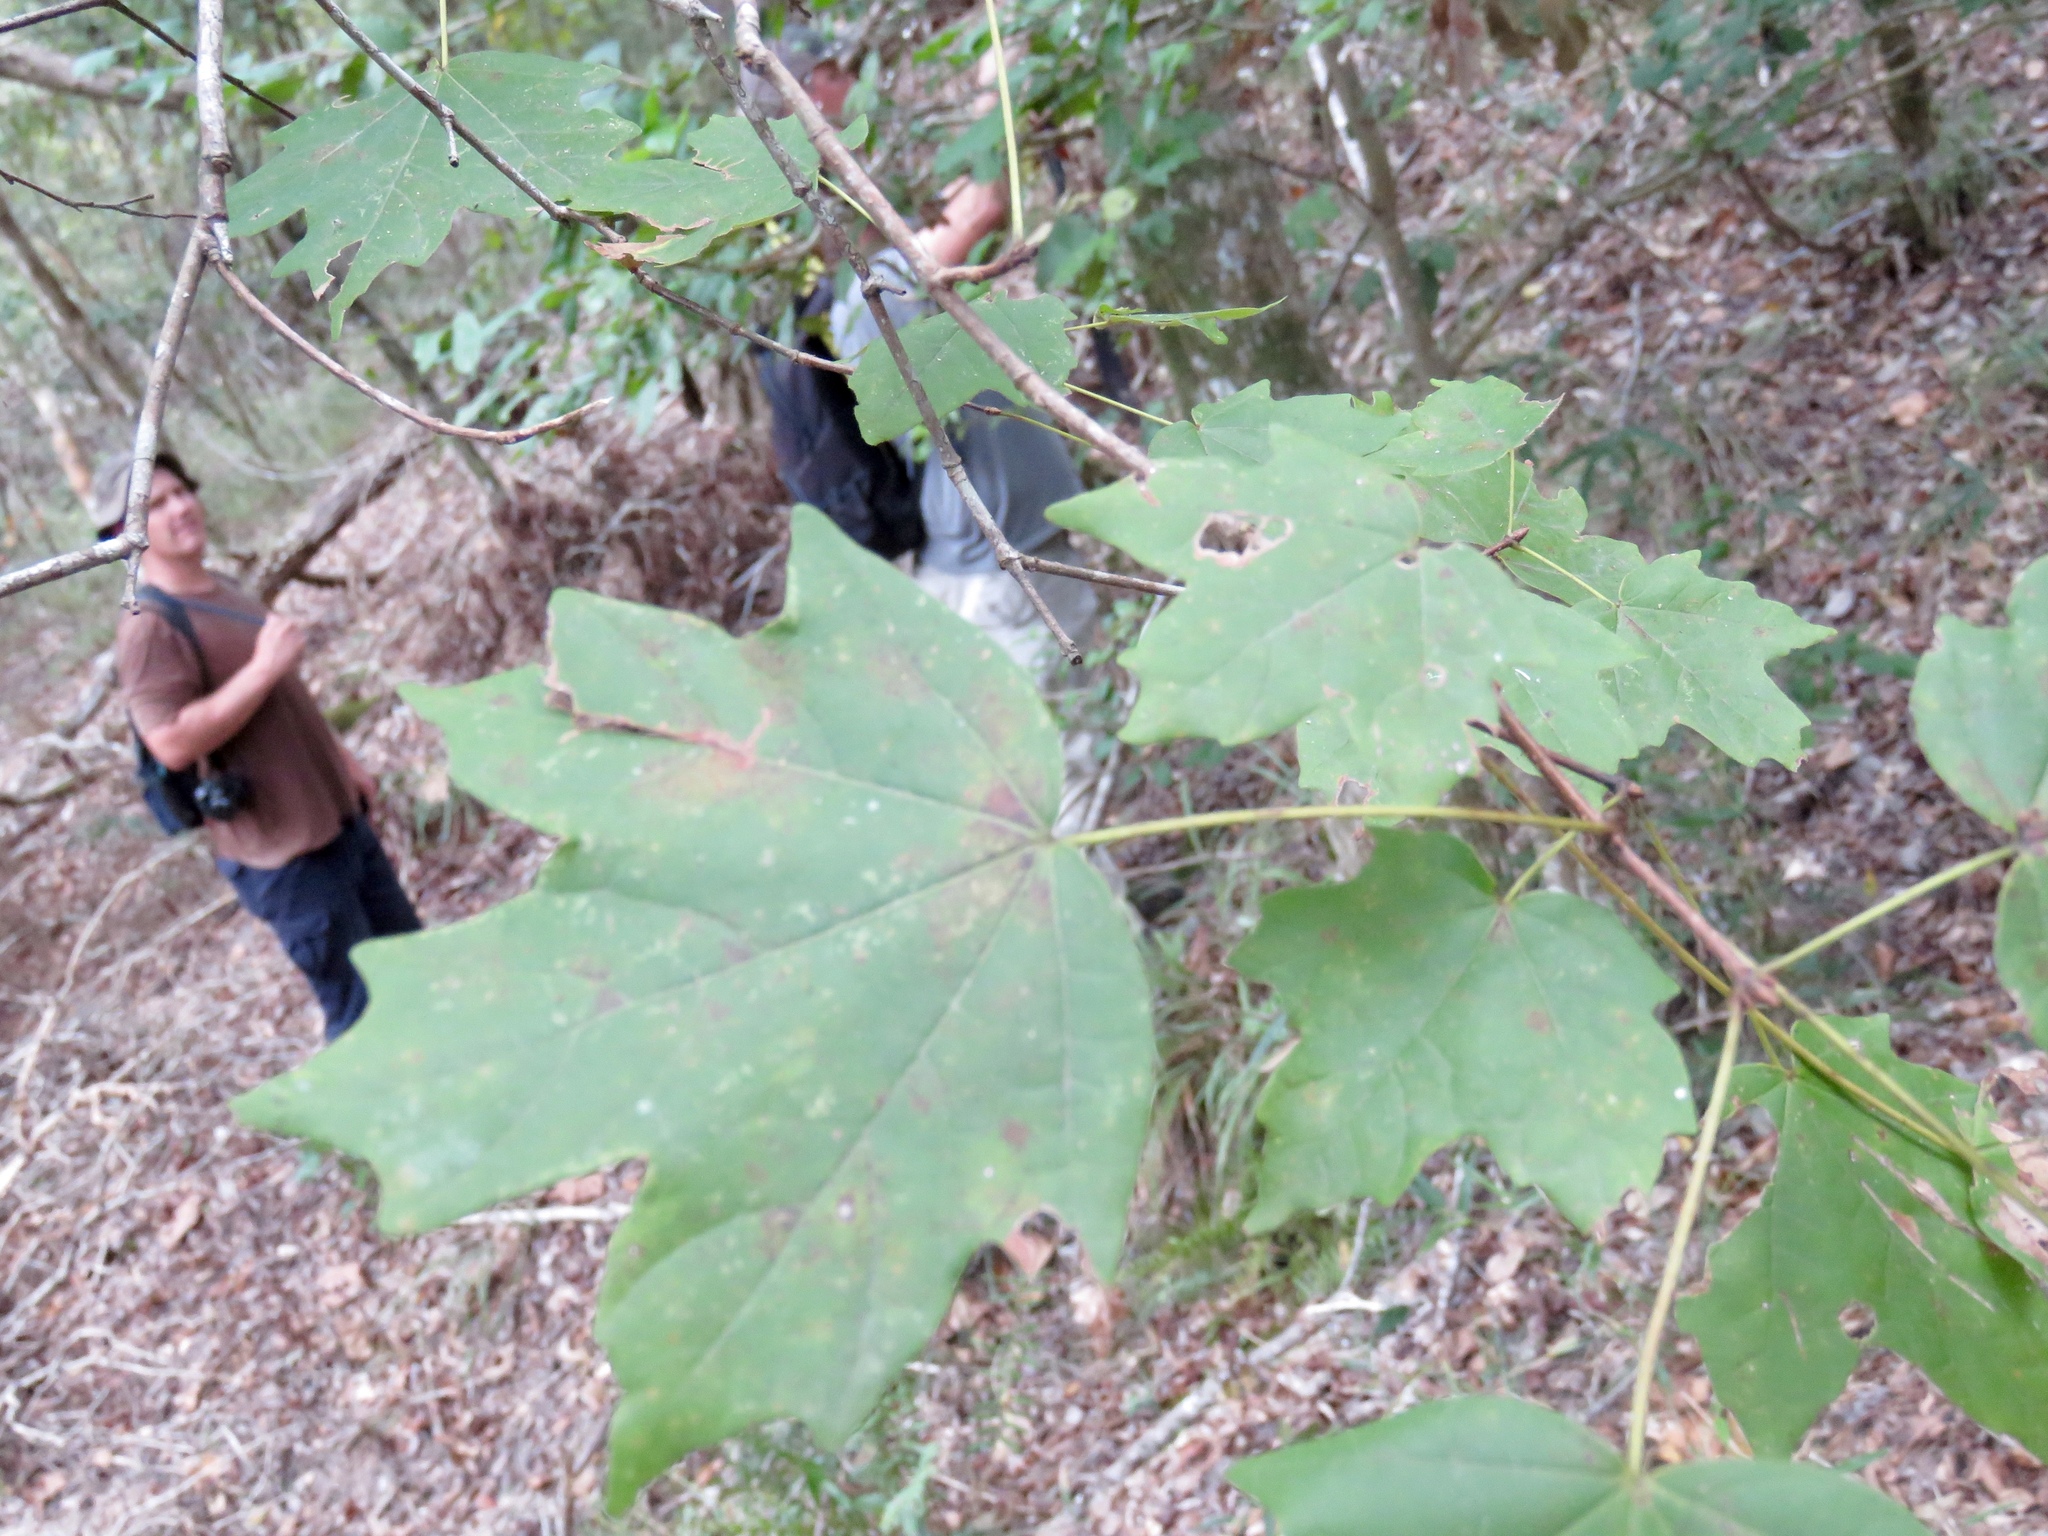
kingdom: Plantae
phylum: Tracheophyta
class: Magnoliopsida
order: Sapindales
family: Sapindaceae
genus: Acer
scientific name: Acer floridanum
